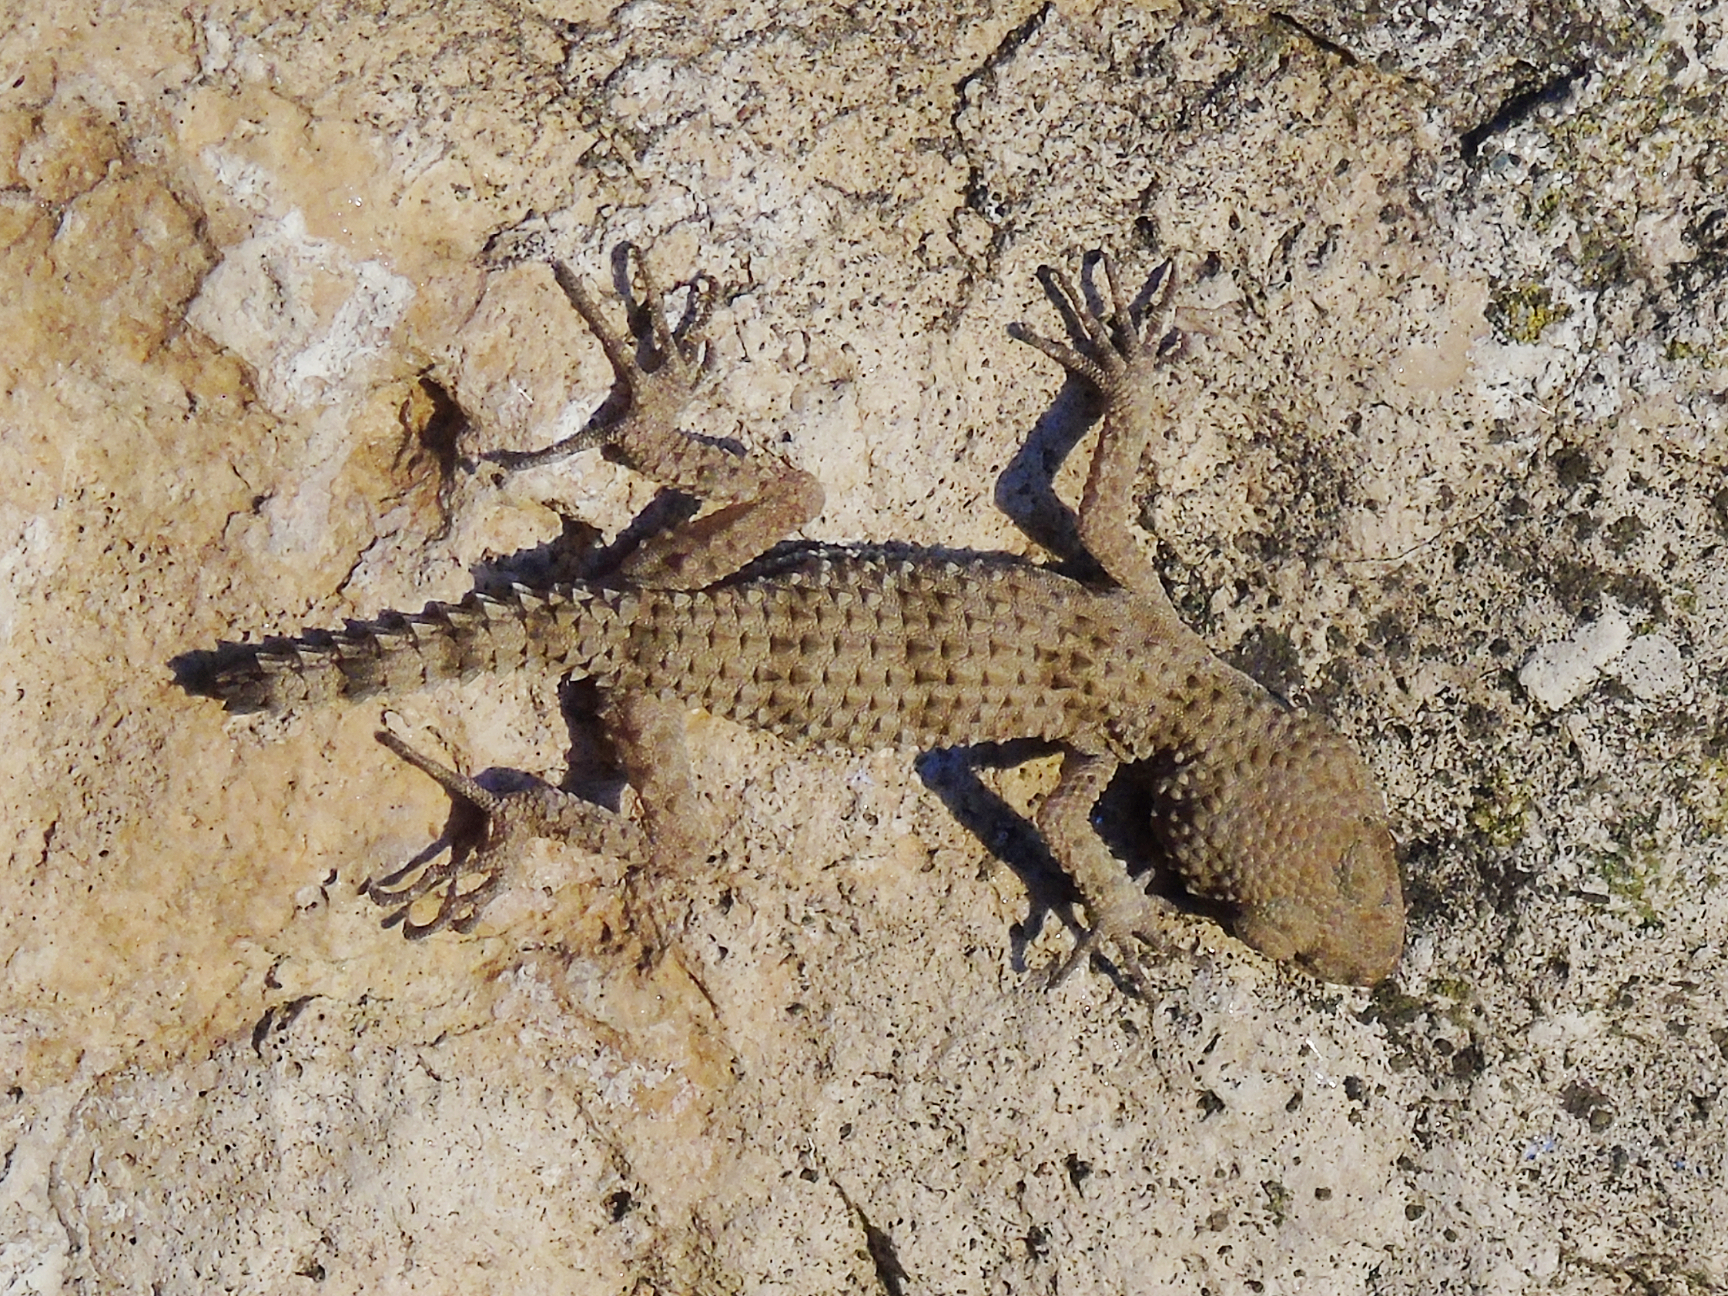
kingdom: Animalia
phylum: Chordata
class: Squamata
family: Gekkonidae
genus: Tenuidactylus
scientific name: Tenuidactylus caspius
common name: Caspian bent-toed gecko
